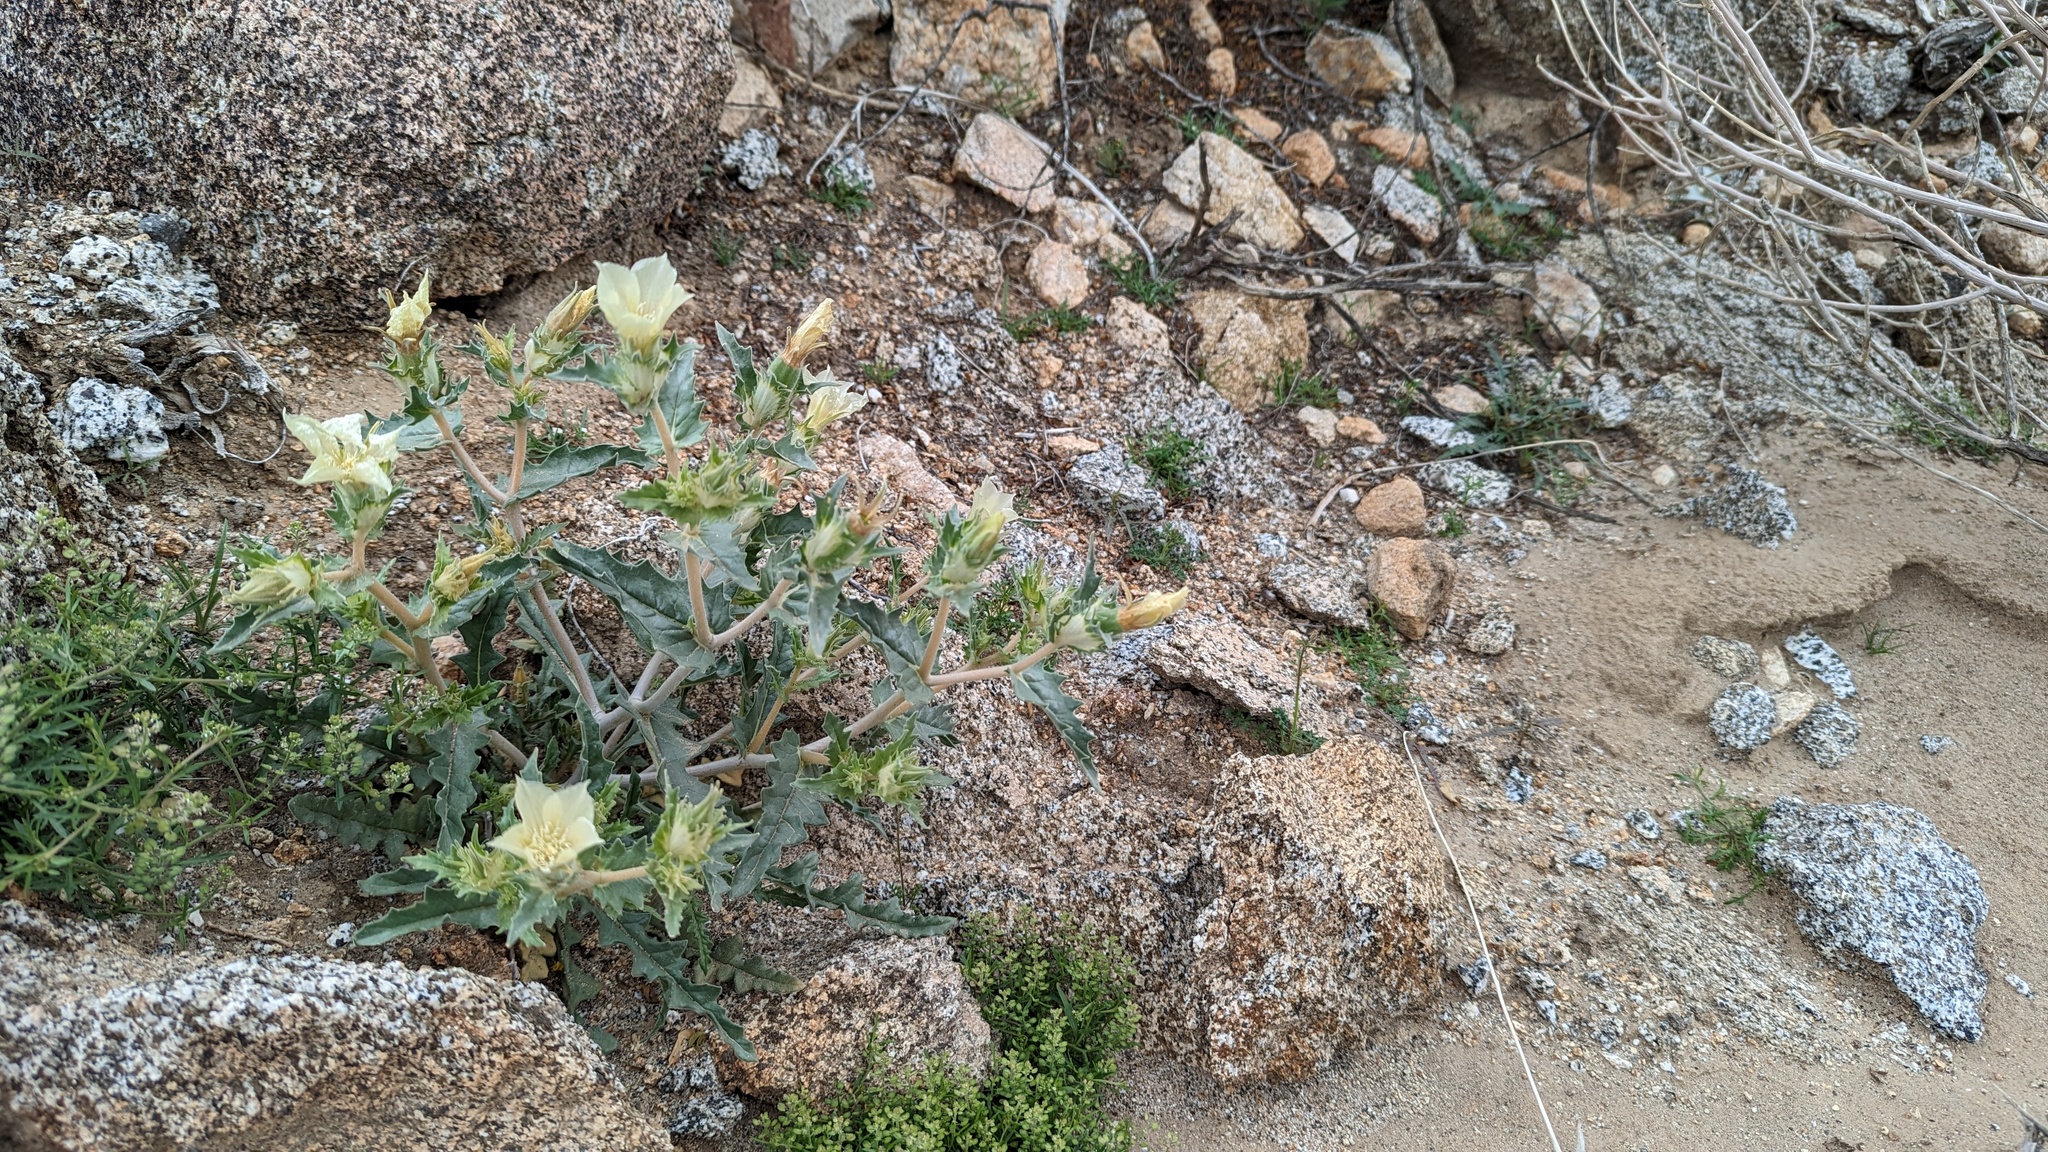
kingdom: Plantae
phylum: Tracheophyta
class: Magnoliopsida
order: Cornales
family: Loasaceae
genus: Mentzelia
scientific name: Mentzelia involucrata
